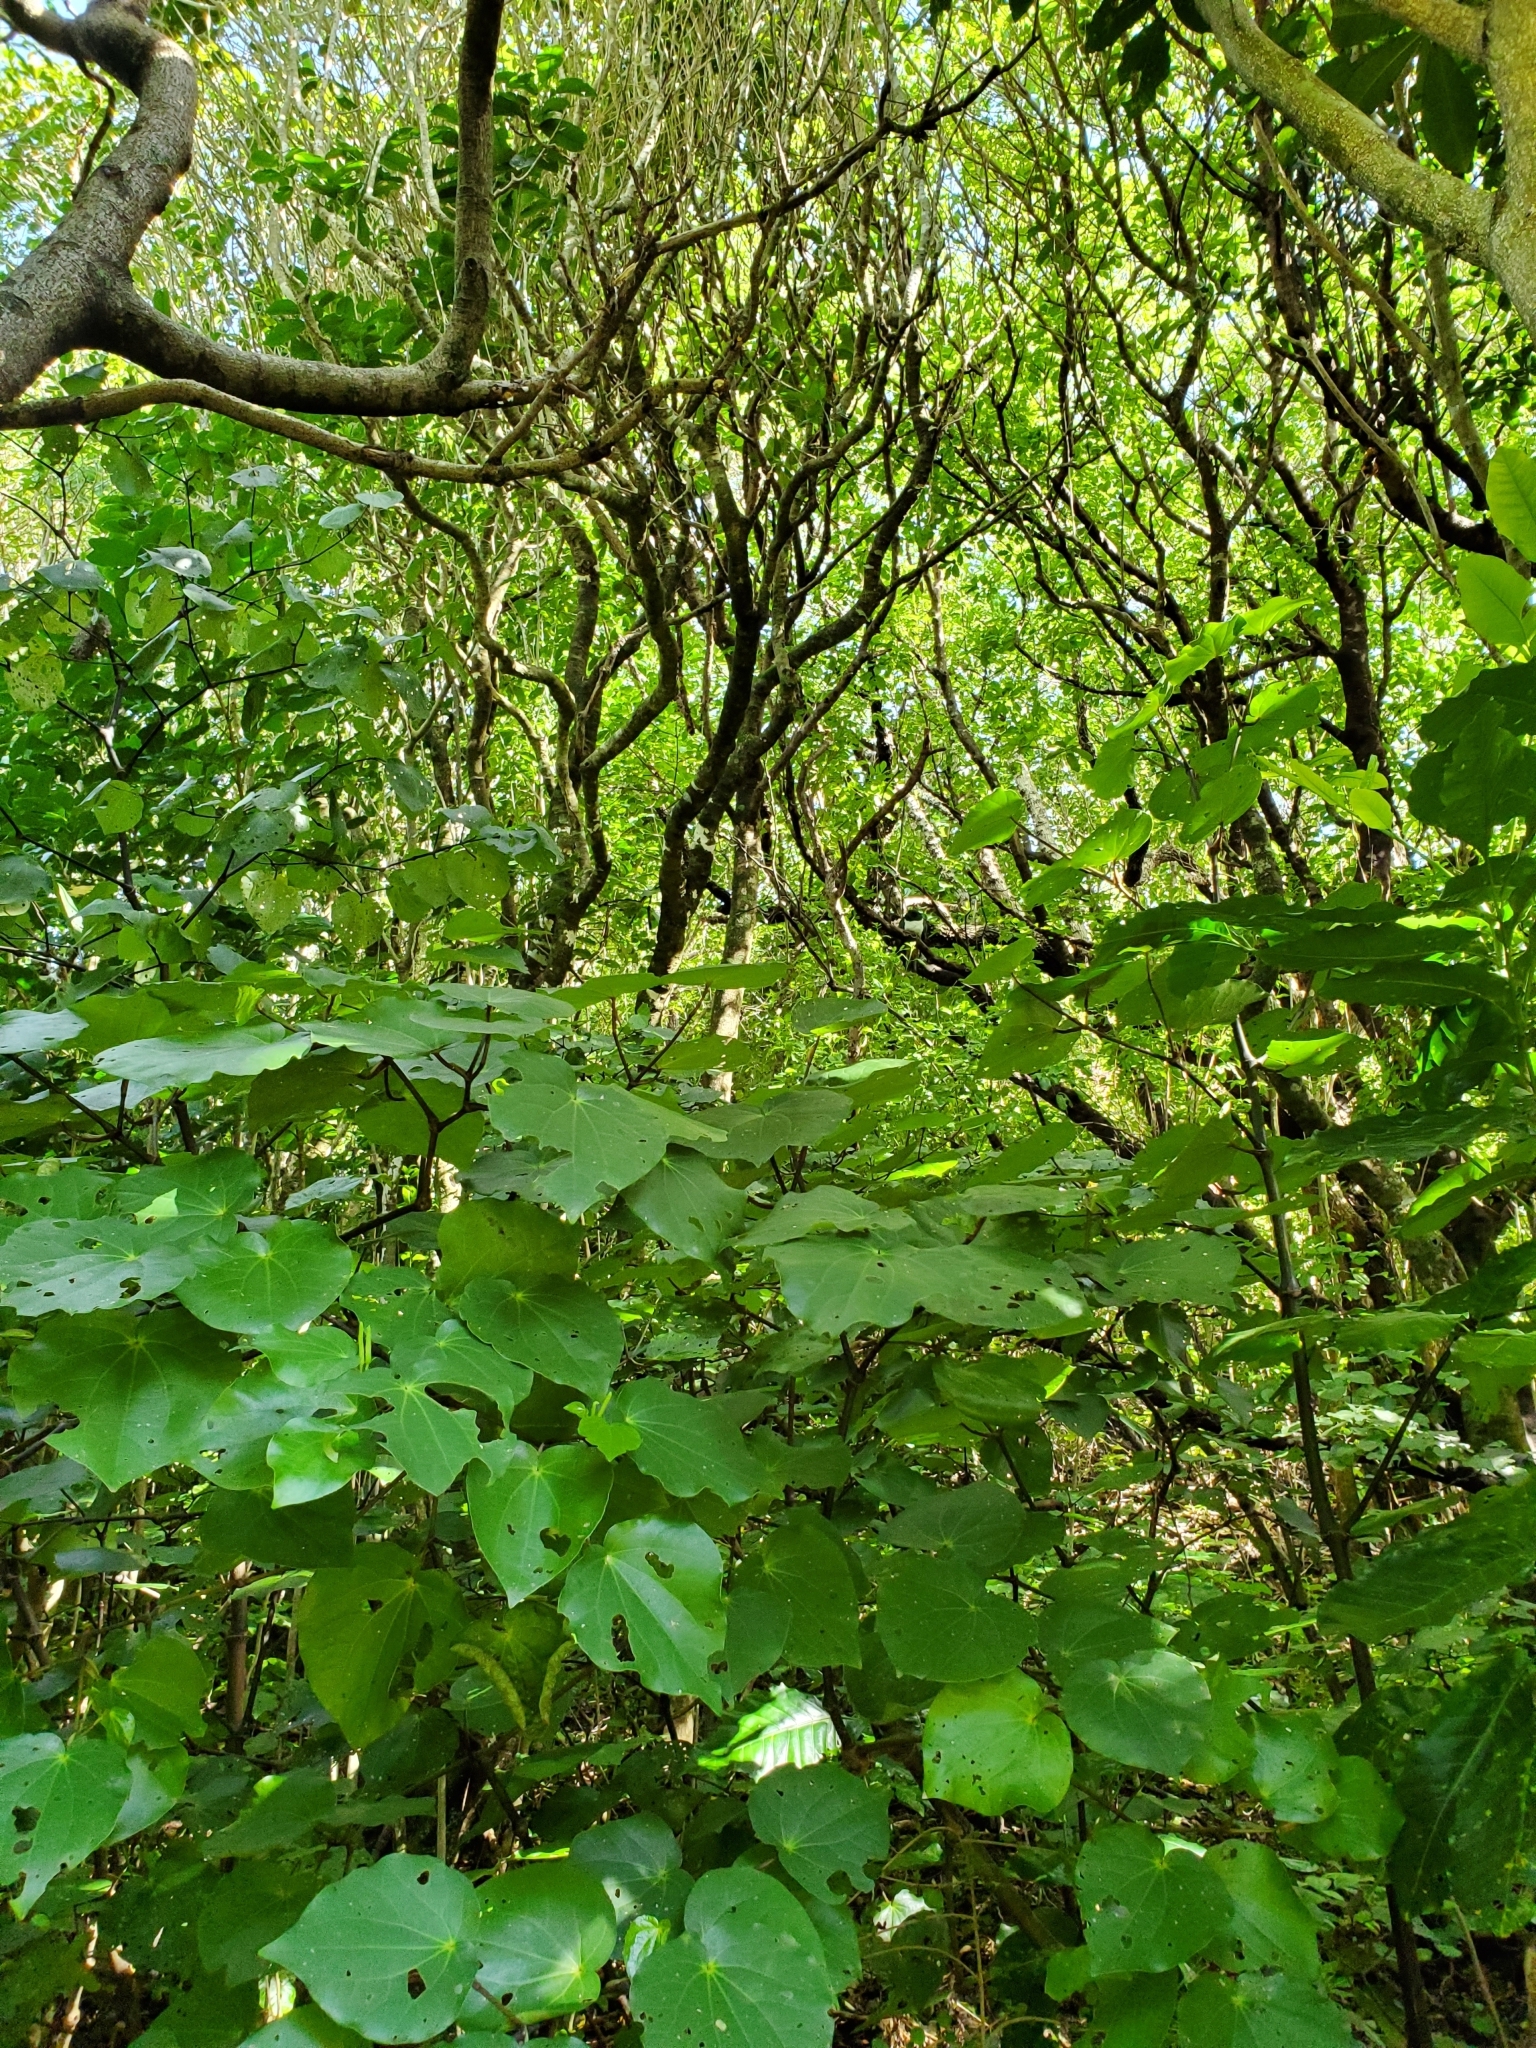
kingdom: Animalia
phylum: Chordata
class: Aves
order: Columbiformes
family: Columbidae
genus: Hemiphaga
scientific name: Hemiphaga novaeseelandiae
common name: New zealand pigeon
